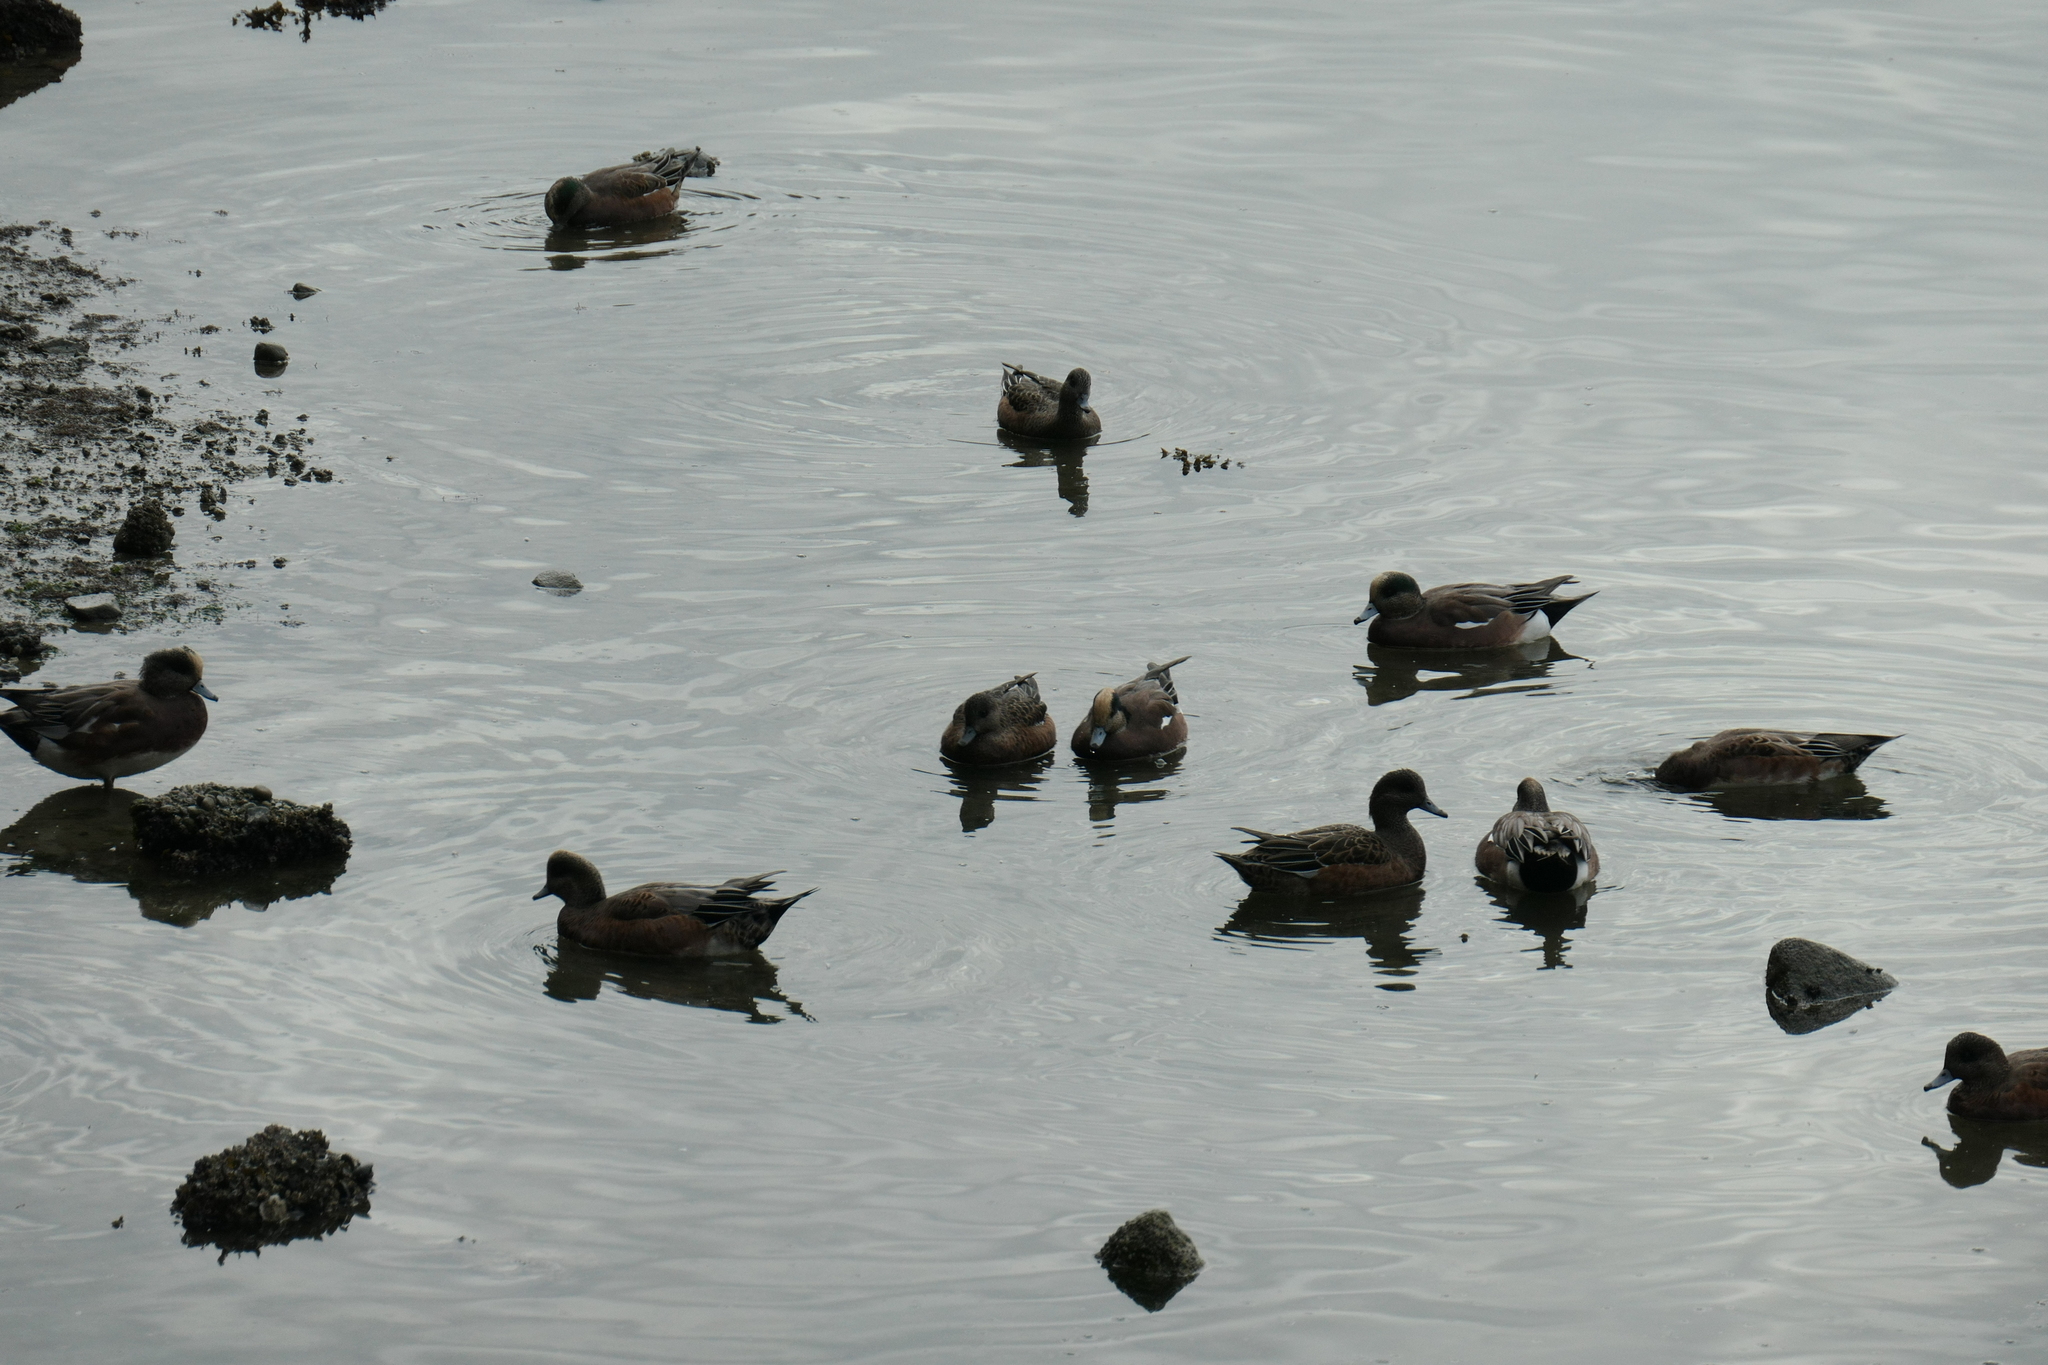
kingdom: Animalia
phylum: Chordata
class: Aves
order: Anseriformes
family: Anatidae
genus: Mareca
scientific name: Mareca americana
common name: American wigeon
